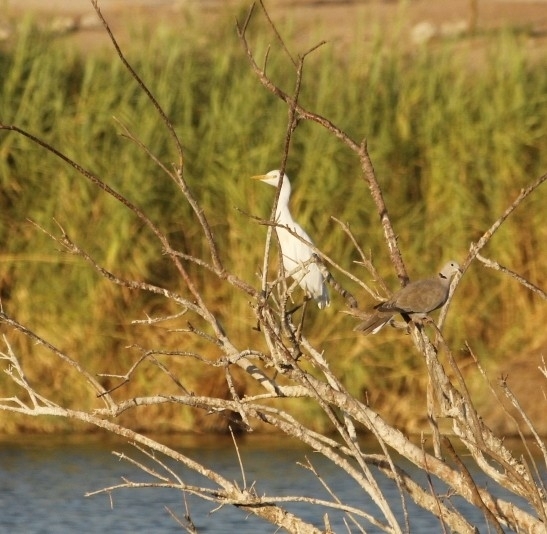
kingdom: Animalia
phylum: Chordata
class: Aves
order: Pelecaniformes
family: Ardeidae
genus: Bubulcus
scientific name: Bubulcus ibis
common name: Cattle egret
